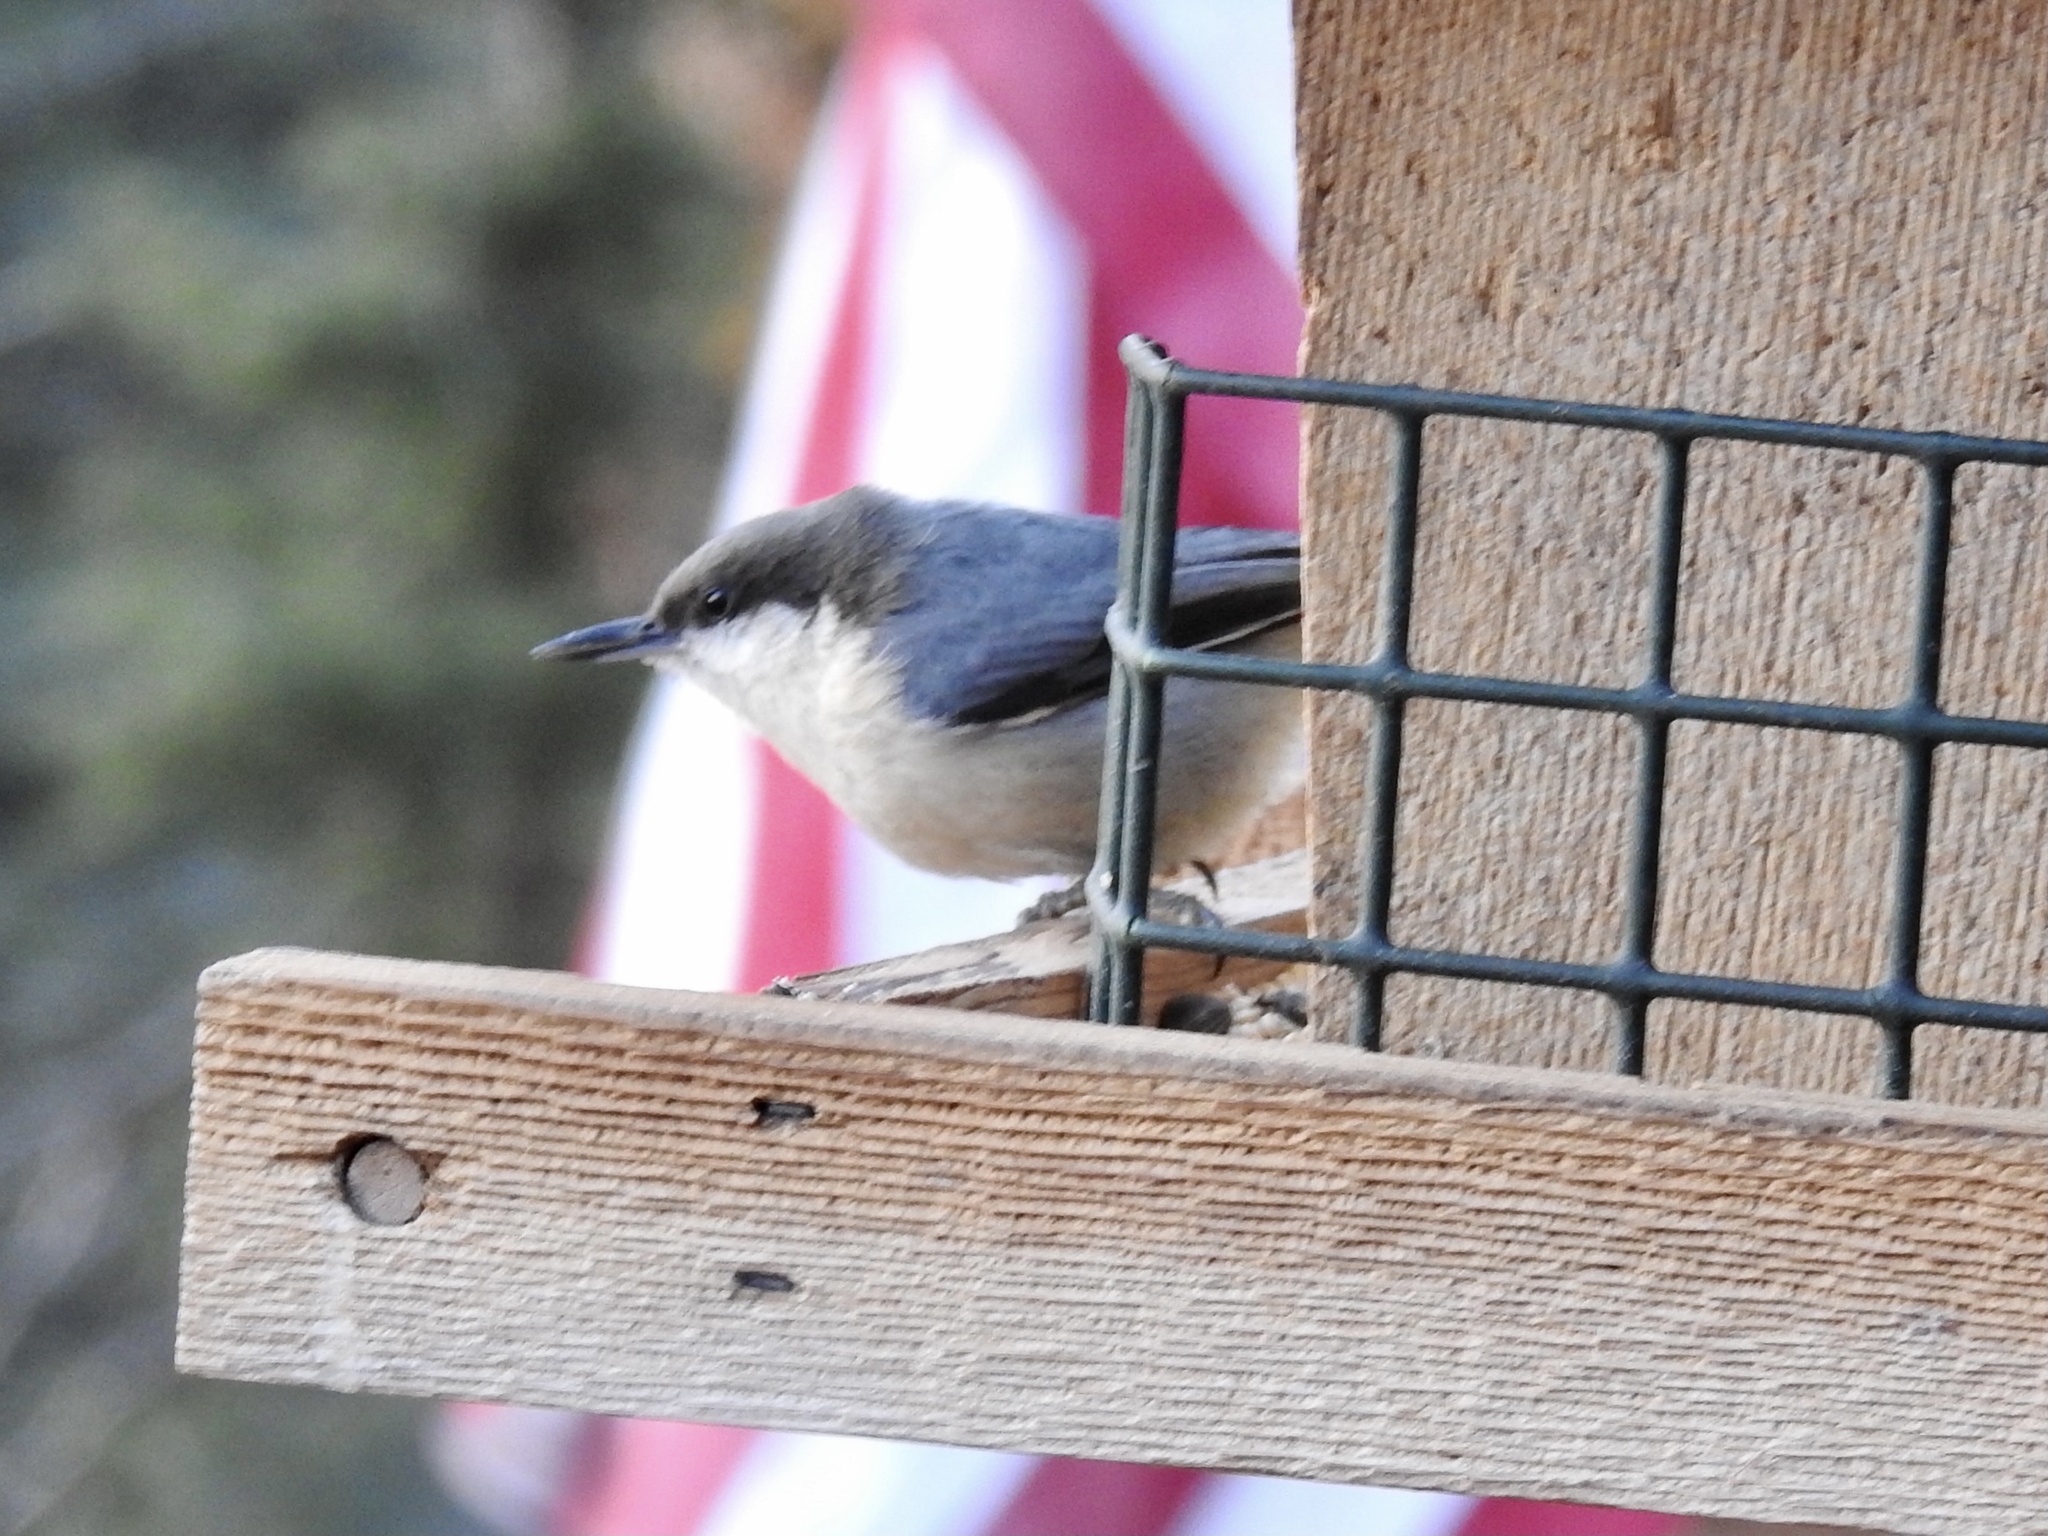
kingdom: Animalia
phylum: Chordata
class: Aves
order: Passeriformes
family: Sittidae
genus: Sitta
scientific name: Sitta pygmaea
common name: Pygmy nuthatch
